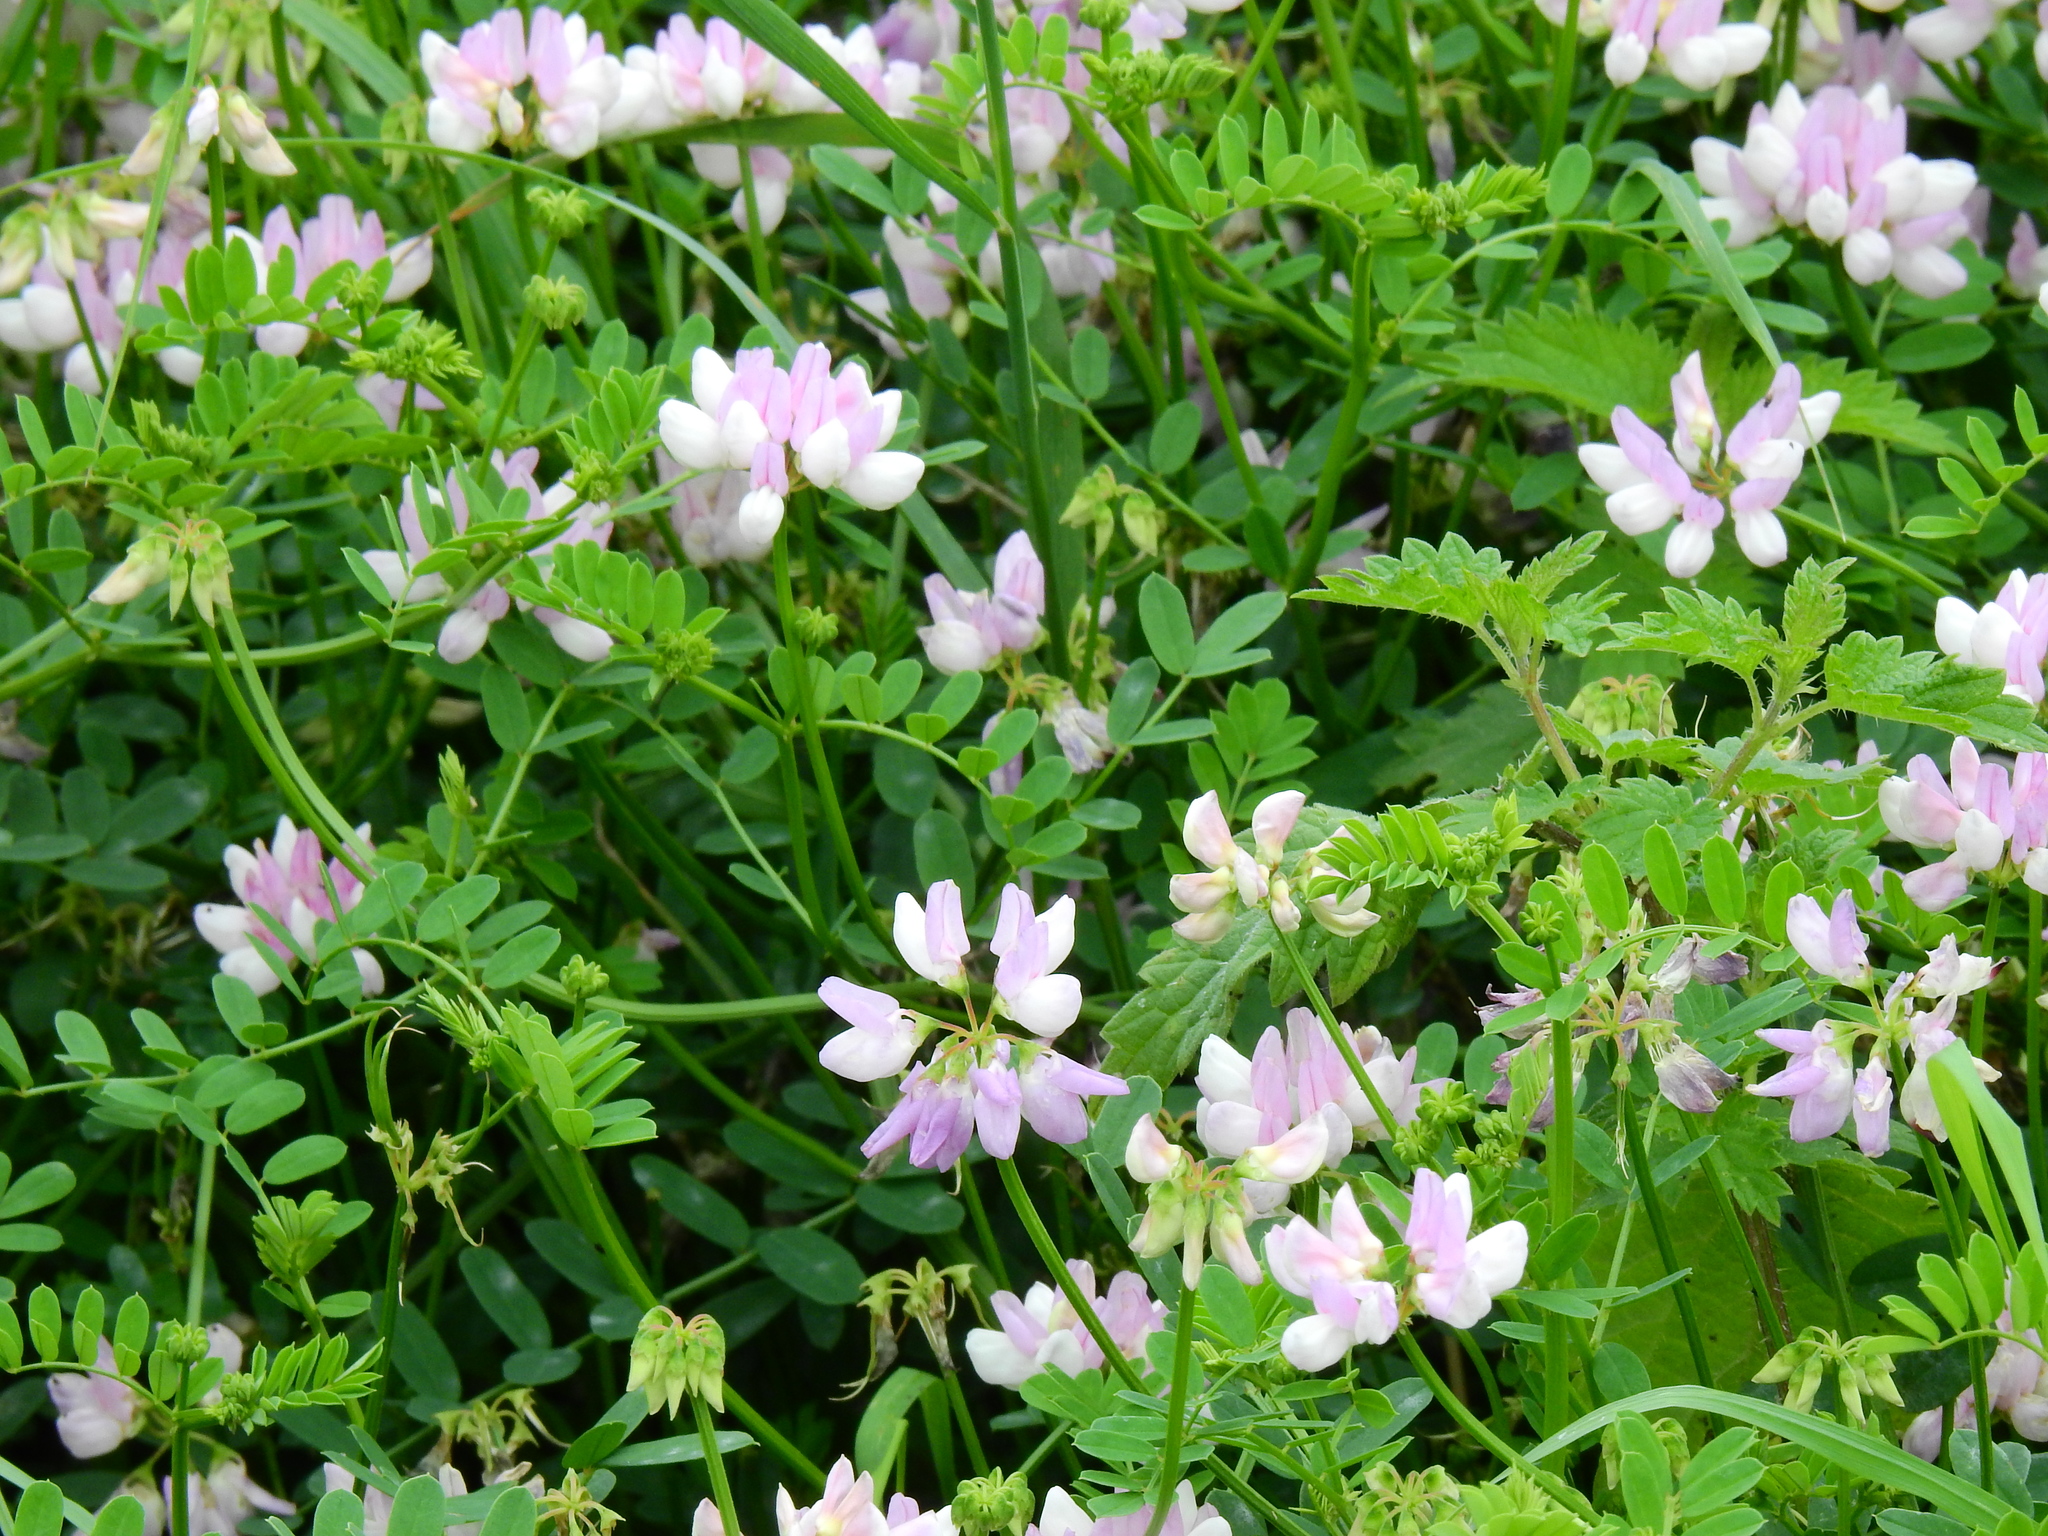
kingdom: Plantae
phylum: Tracheophyta
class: Magnoliopsida
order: Fabales
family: Fabaceae
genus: Coronilla
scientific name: Coronilla varia
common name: Crownvetch
